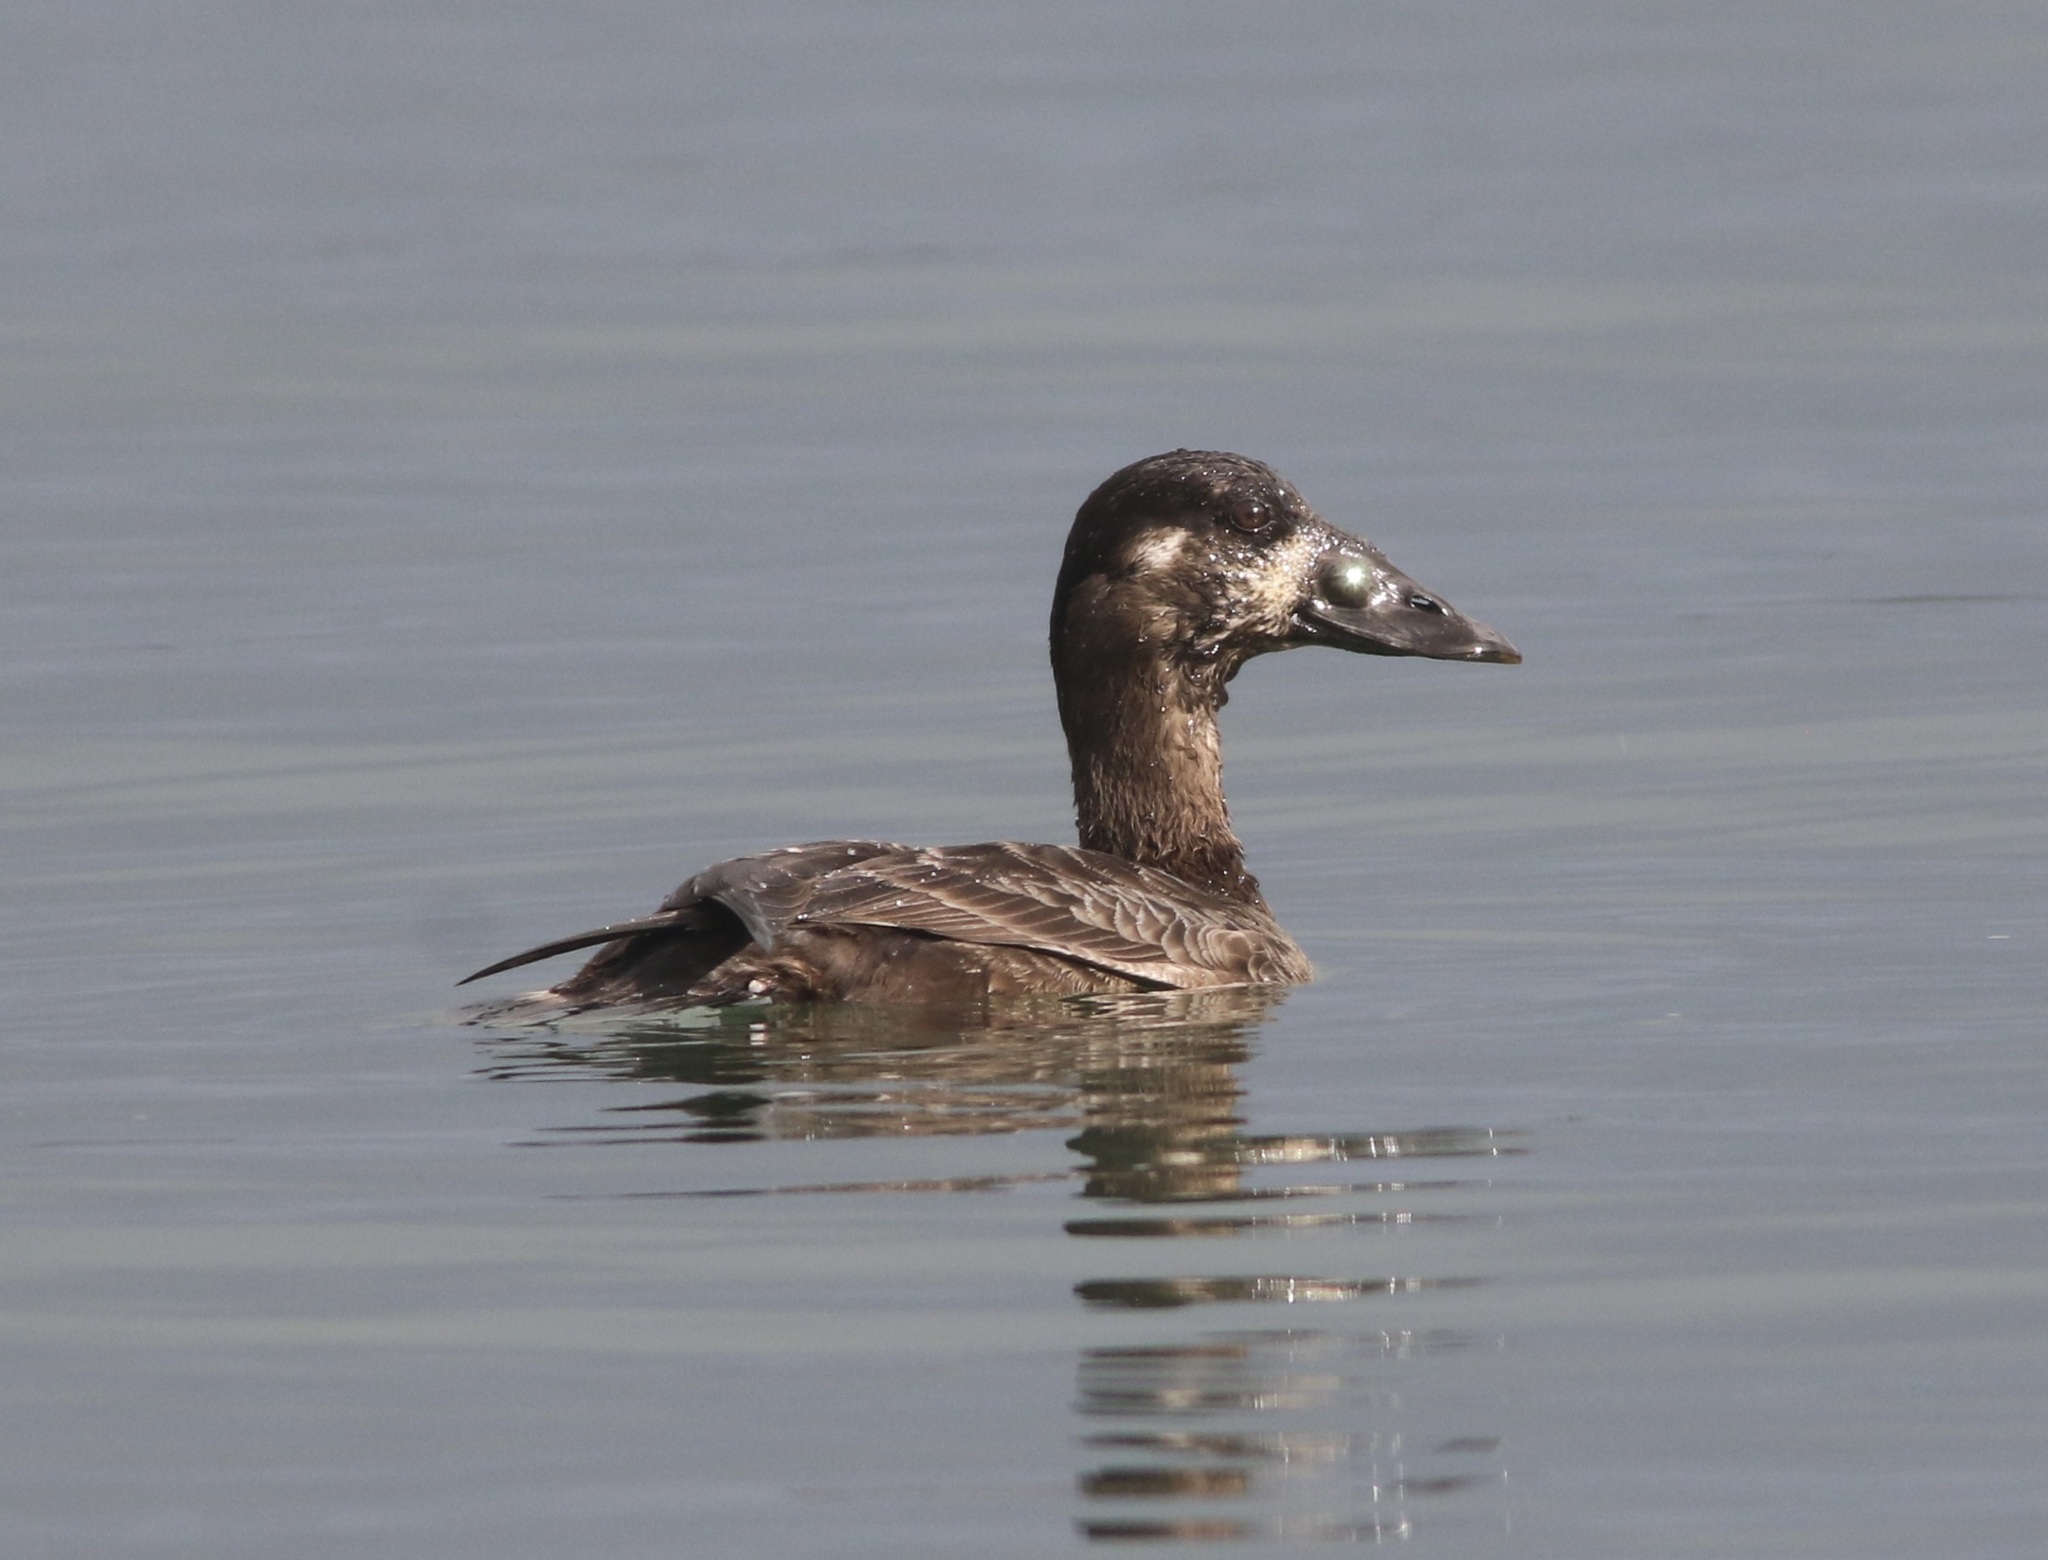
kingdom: Animalia
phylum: Chordata
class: Aves
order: Anseriformes
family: Anatidae
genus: Melanitta
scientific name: Melanitta perspicillata
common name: Surf scoter
